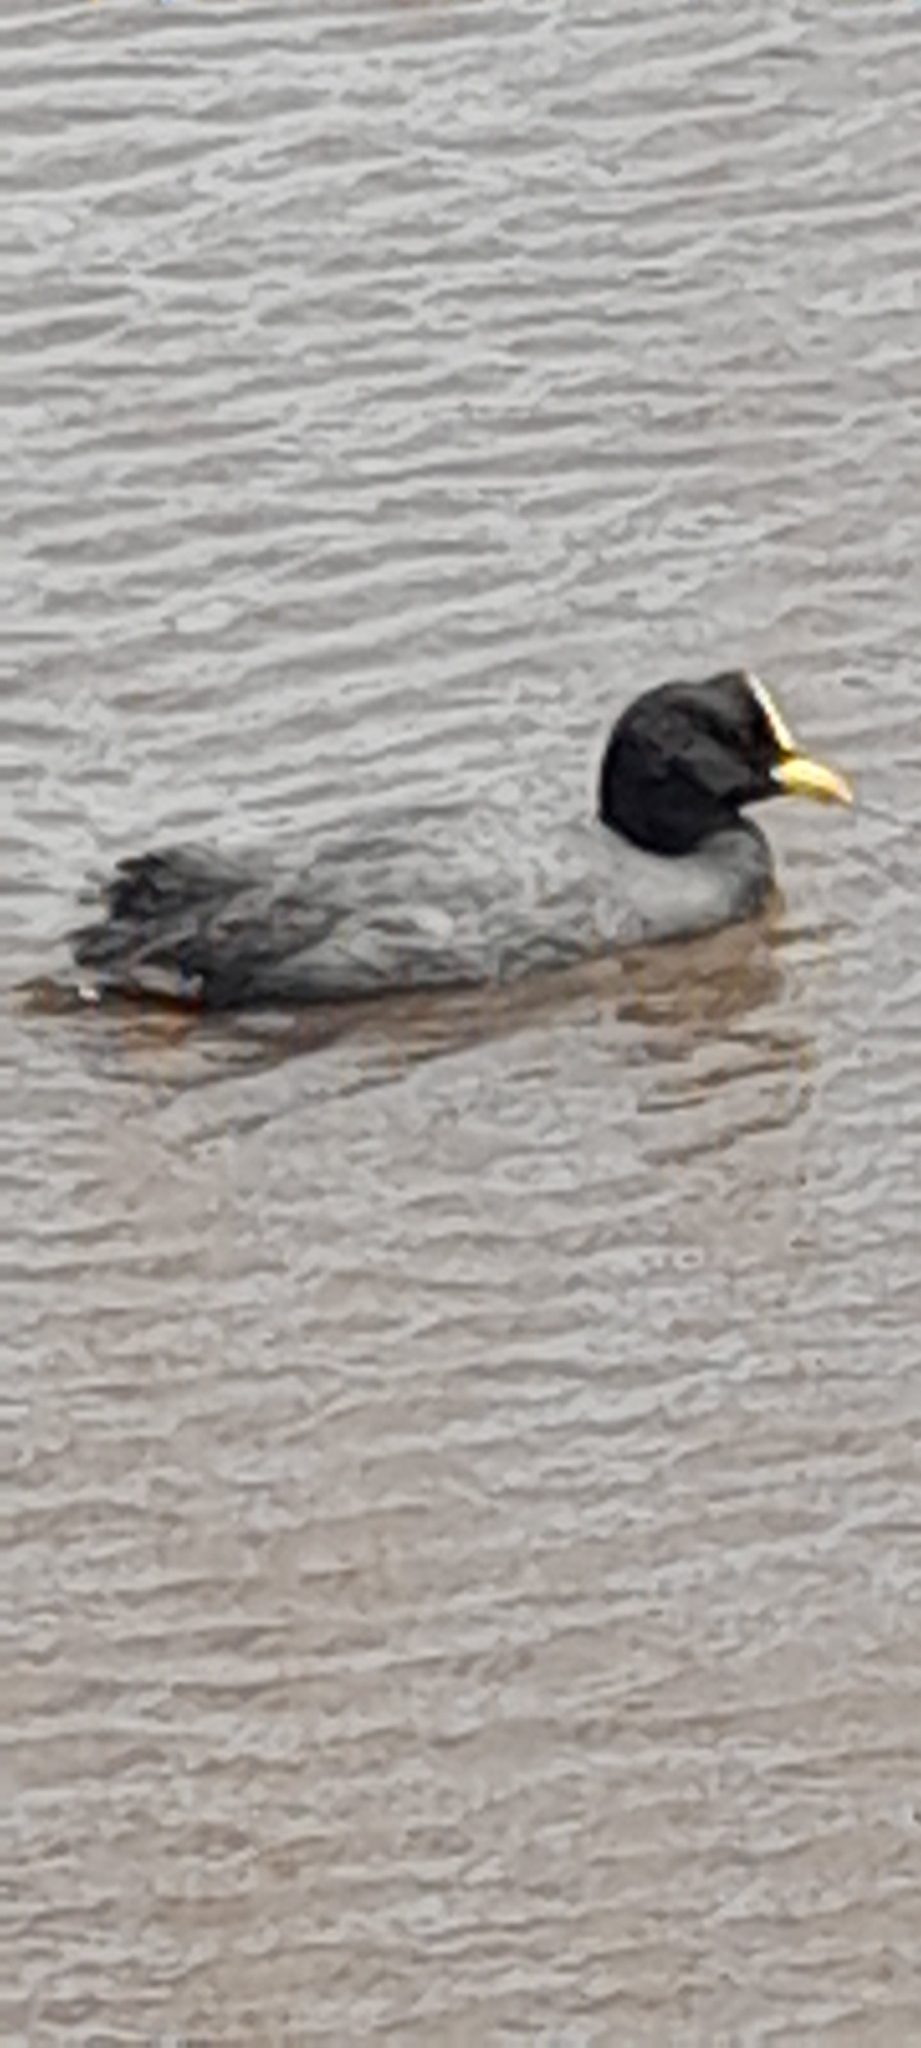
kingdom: Animalia
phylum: Chordata
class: Aves
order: Gruiformes
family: Rallidae
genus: Fulica
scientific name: Fulica armillata
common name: Red-gartered coot
